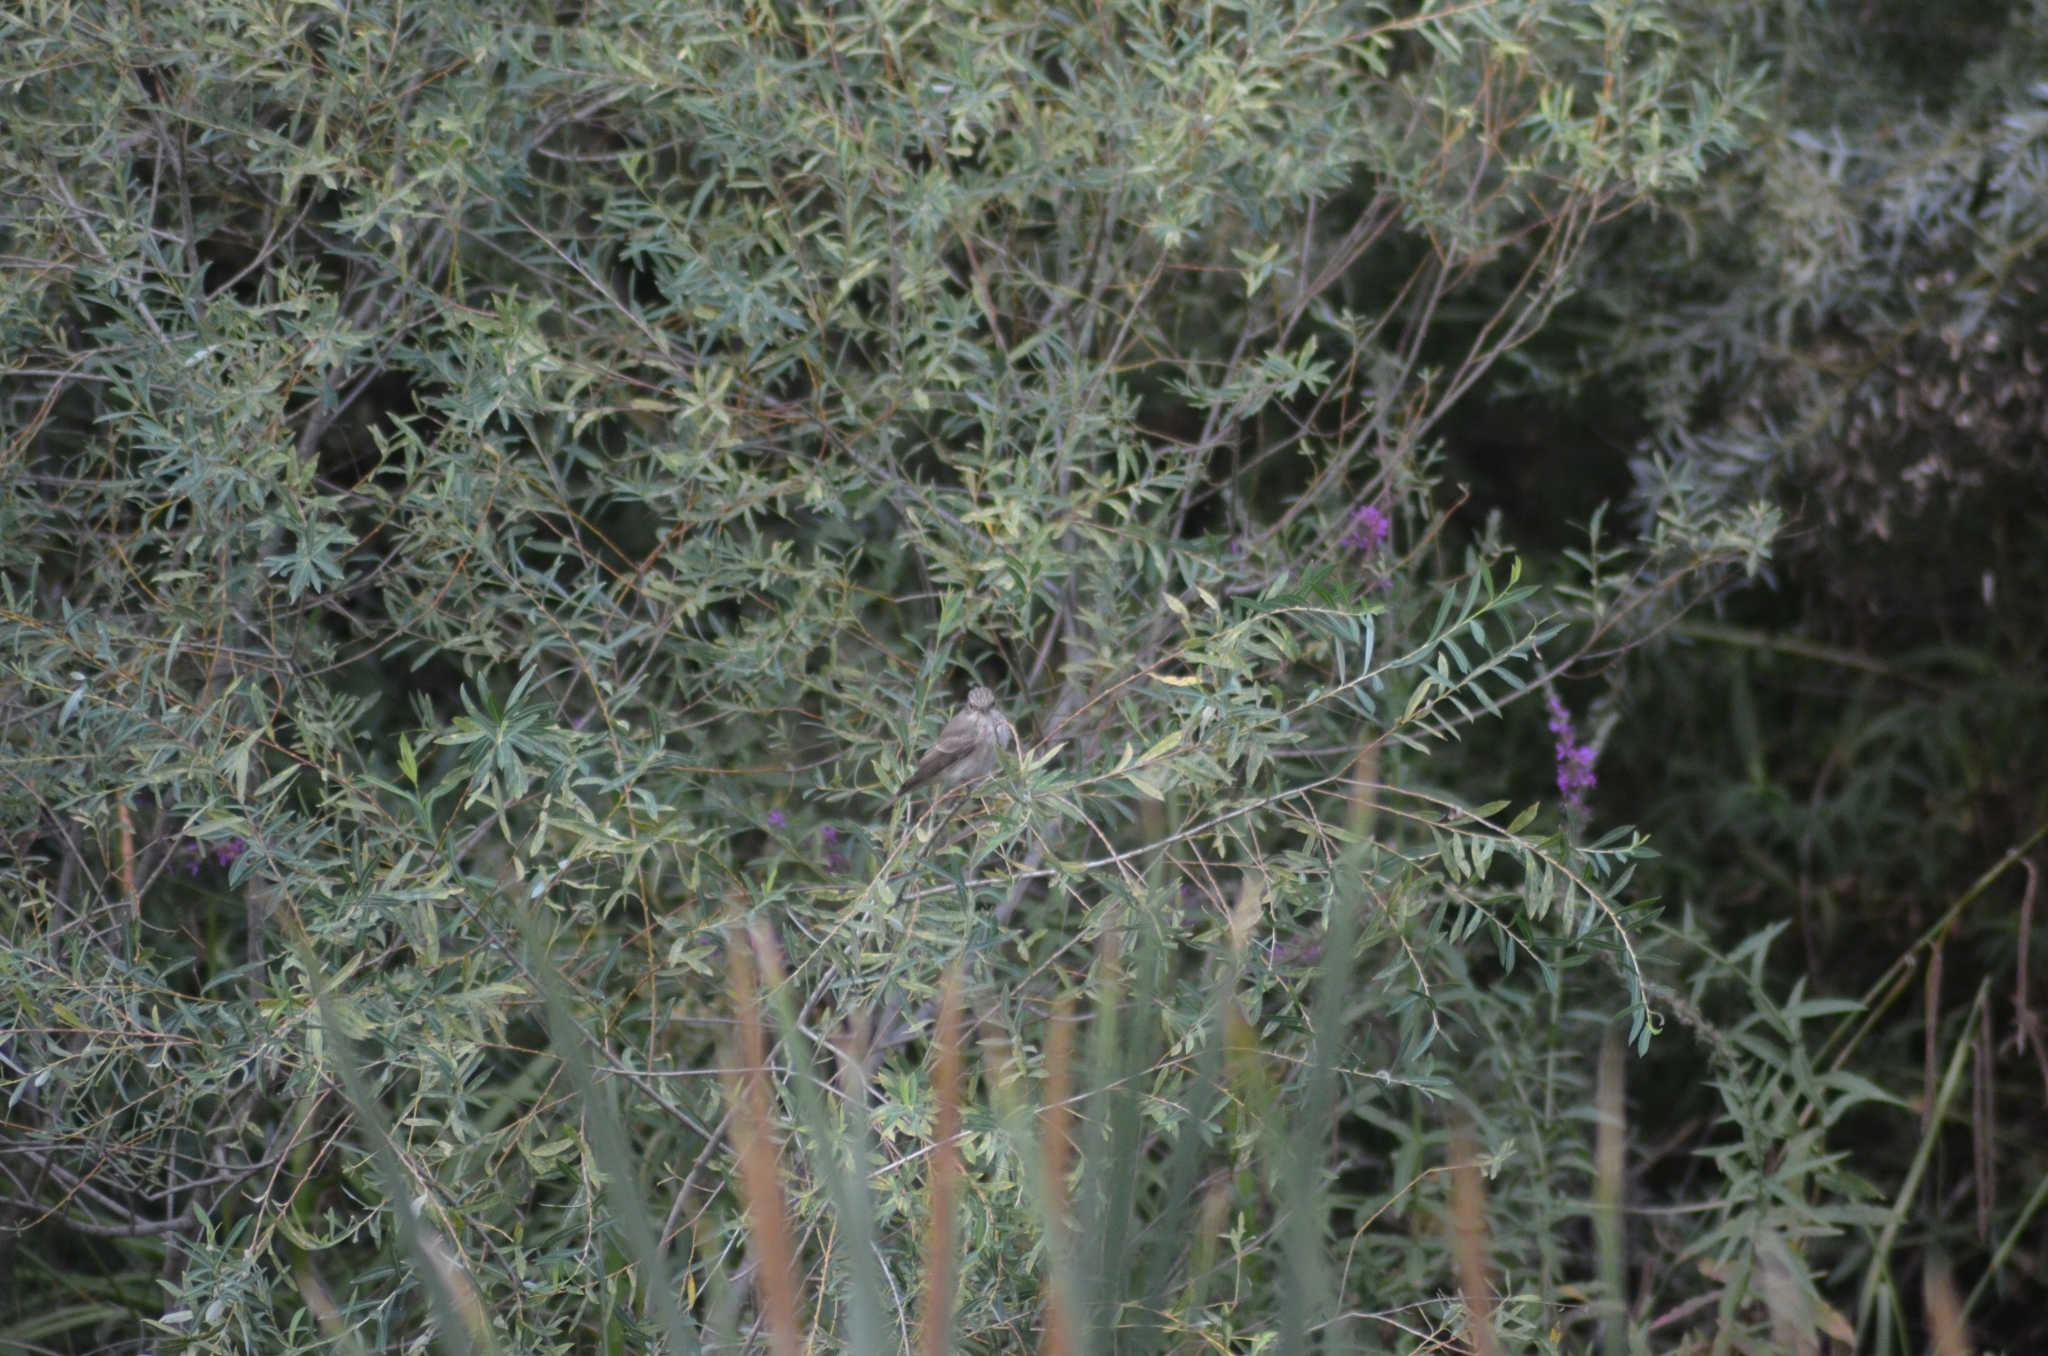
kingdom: Animalia
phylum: Chordata
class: Aves
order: Passeriformes
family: Muscicapidae
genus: Muscicapa
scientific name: Muscicapa striata
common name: Spotted flycatcher
